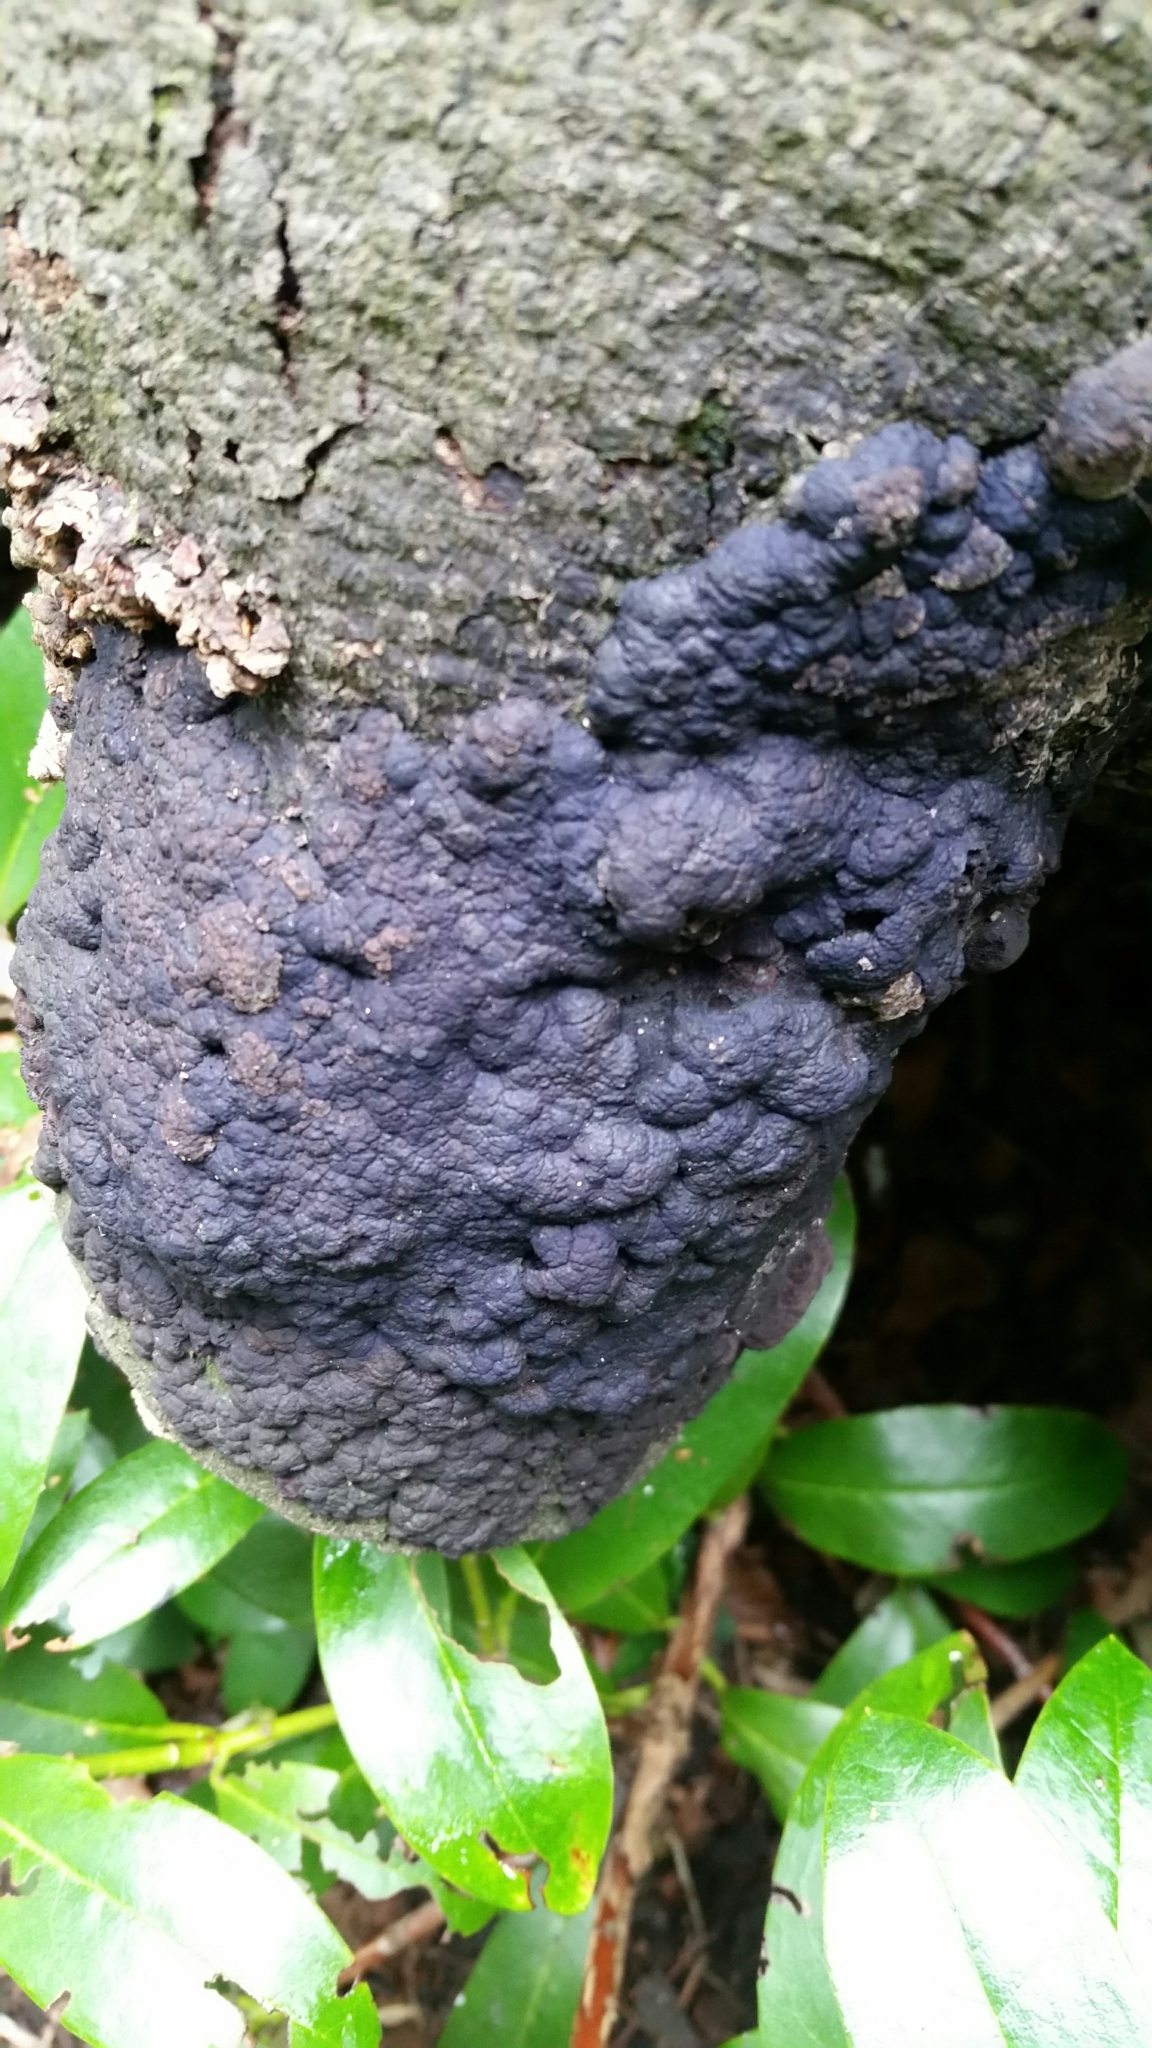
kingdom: Fungi
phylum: Ascomycota
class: Sordariomycetes
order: Xylariales
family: Xylariaceae
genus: Kretzschmaria
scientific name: Kretzschmaria deusta
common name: Brittle cinder
